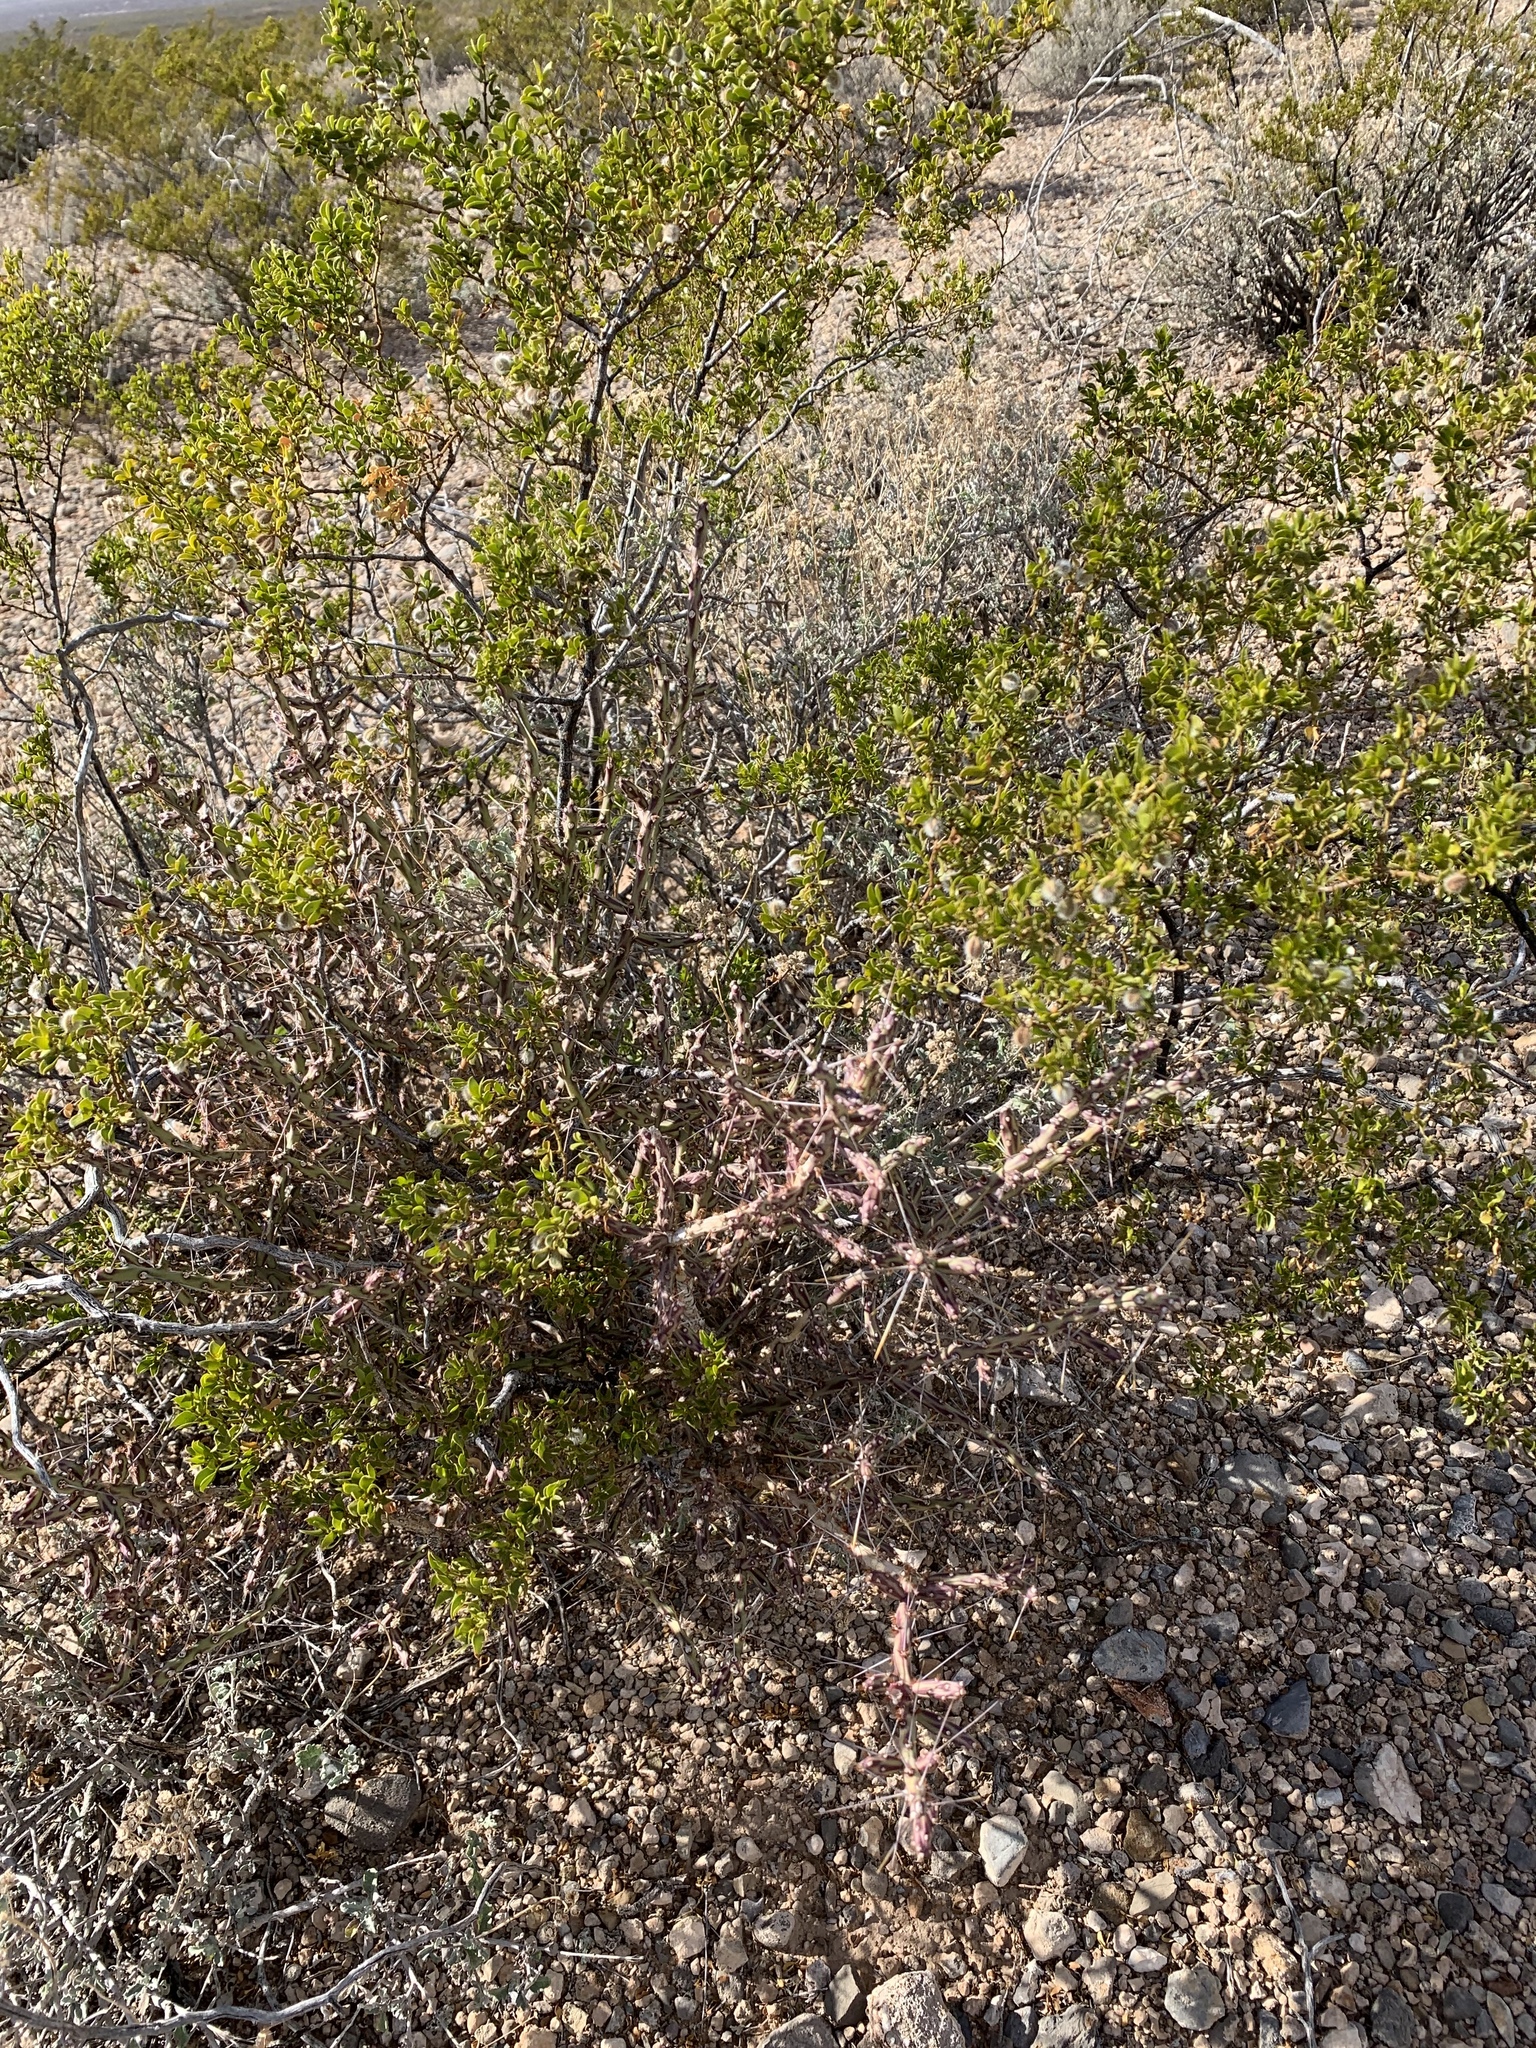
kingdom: Plantae
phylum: Tracheophyta
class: Magnoliopsida
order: Caryophyllales
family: Cactaceae
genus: Cylindropuntia
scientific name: Cylindropuntia leptocaulis
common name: Christmas cactus
